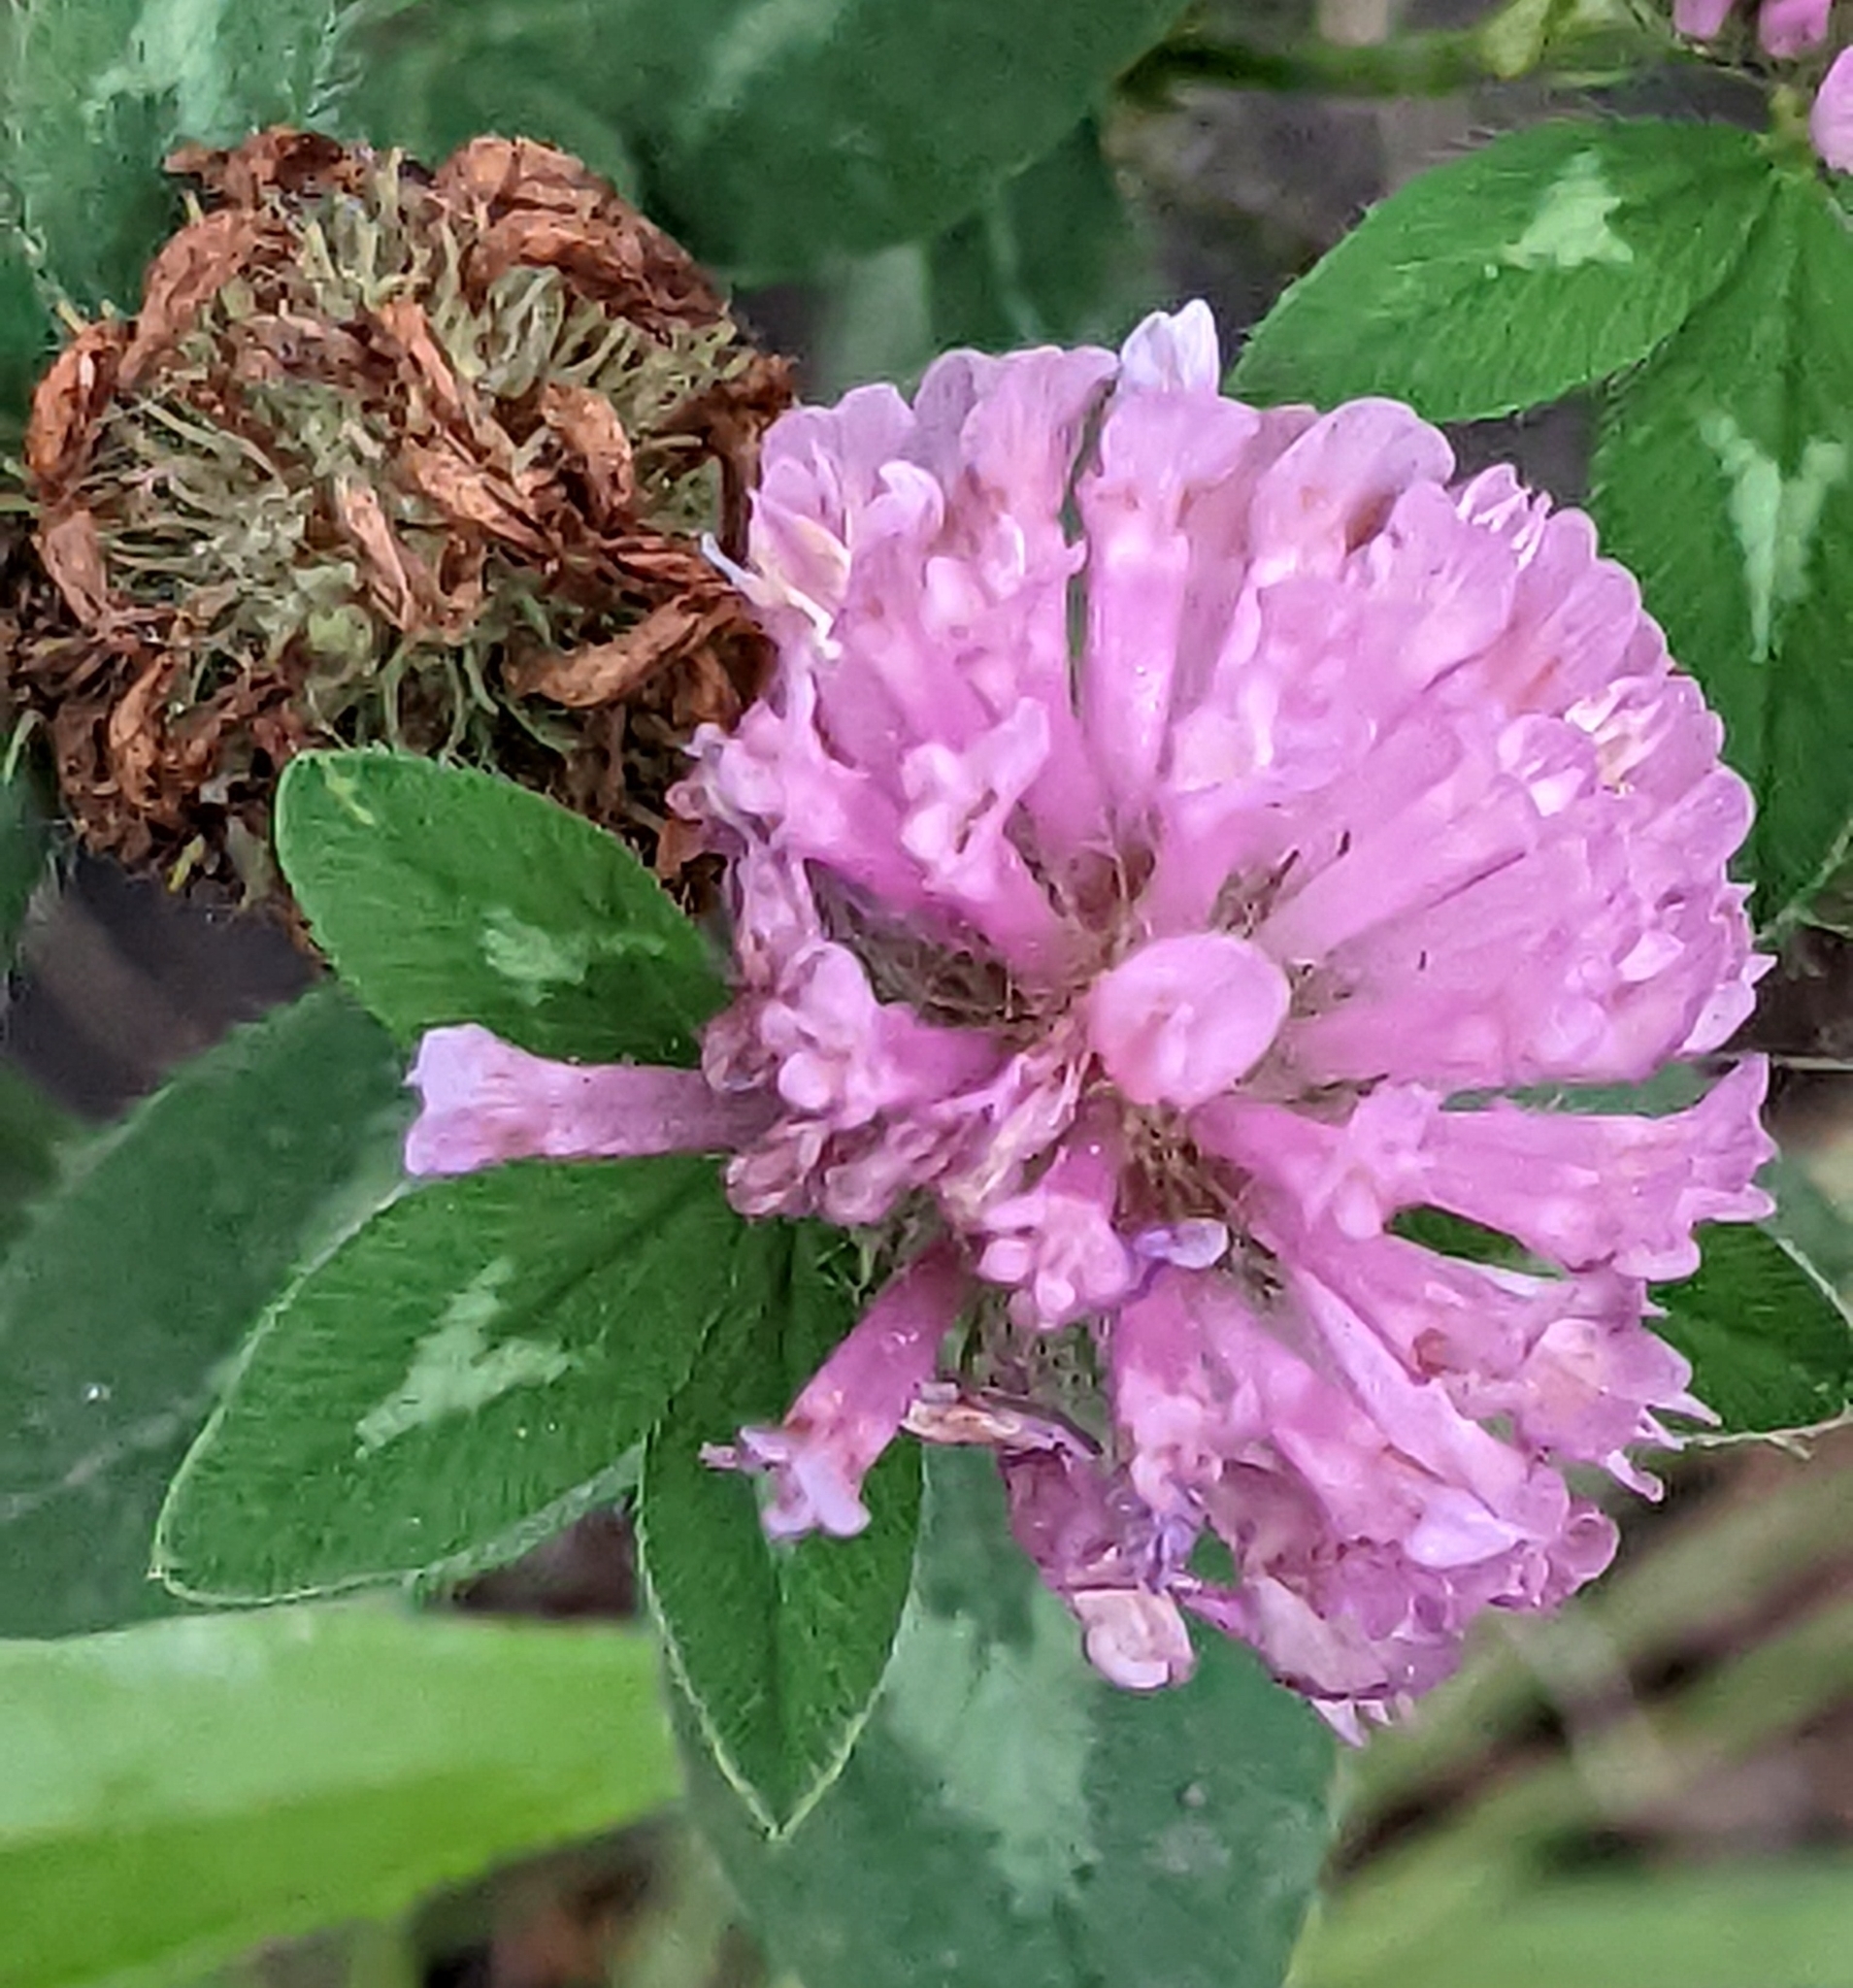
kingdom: Plantae
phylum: Tracheophyta
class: Magnoliopsida
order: Fabales
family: Fabaceae
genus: Trifolium
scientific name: Trifolium pratense
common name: Red clover
